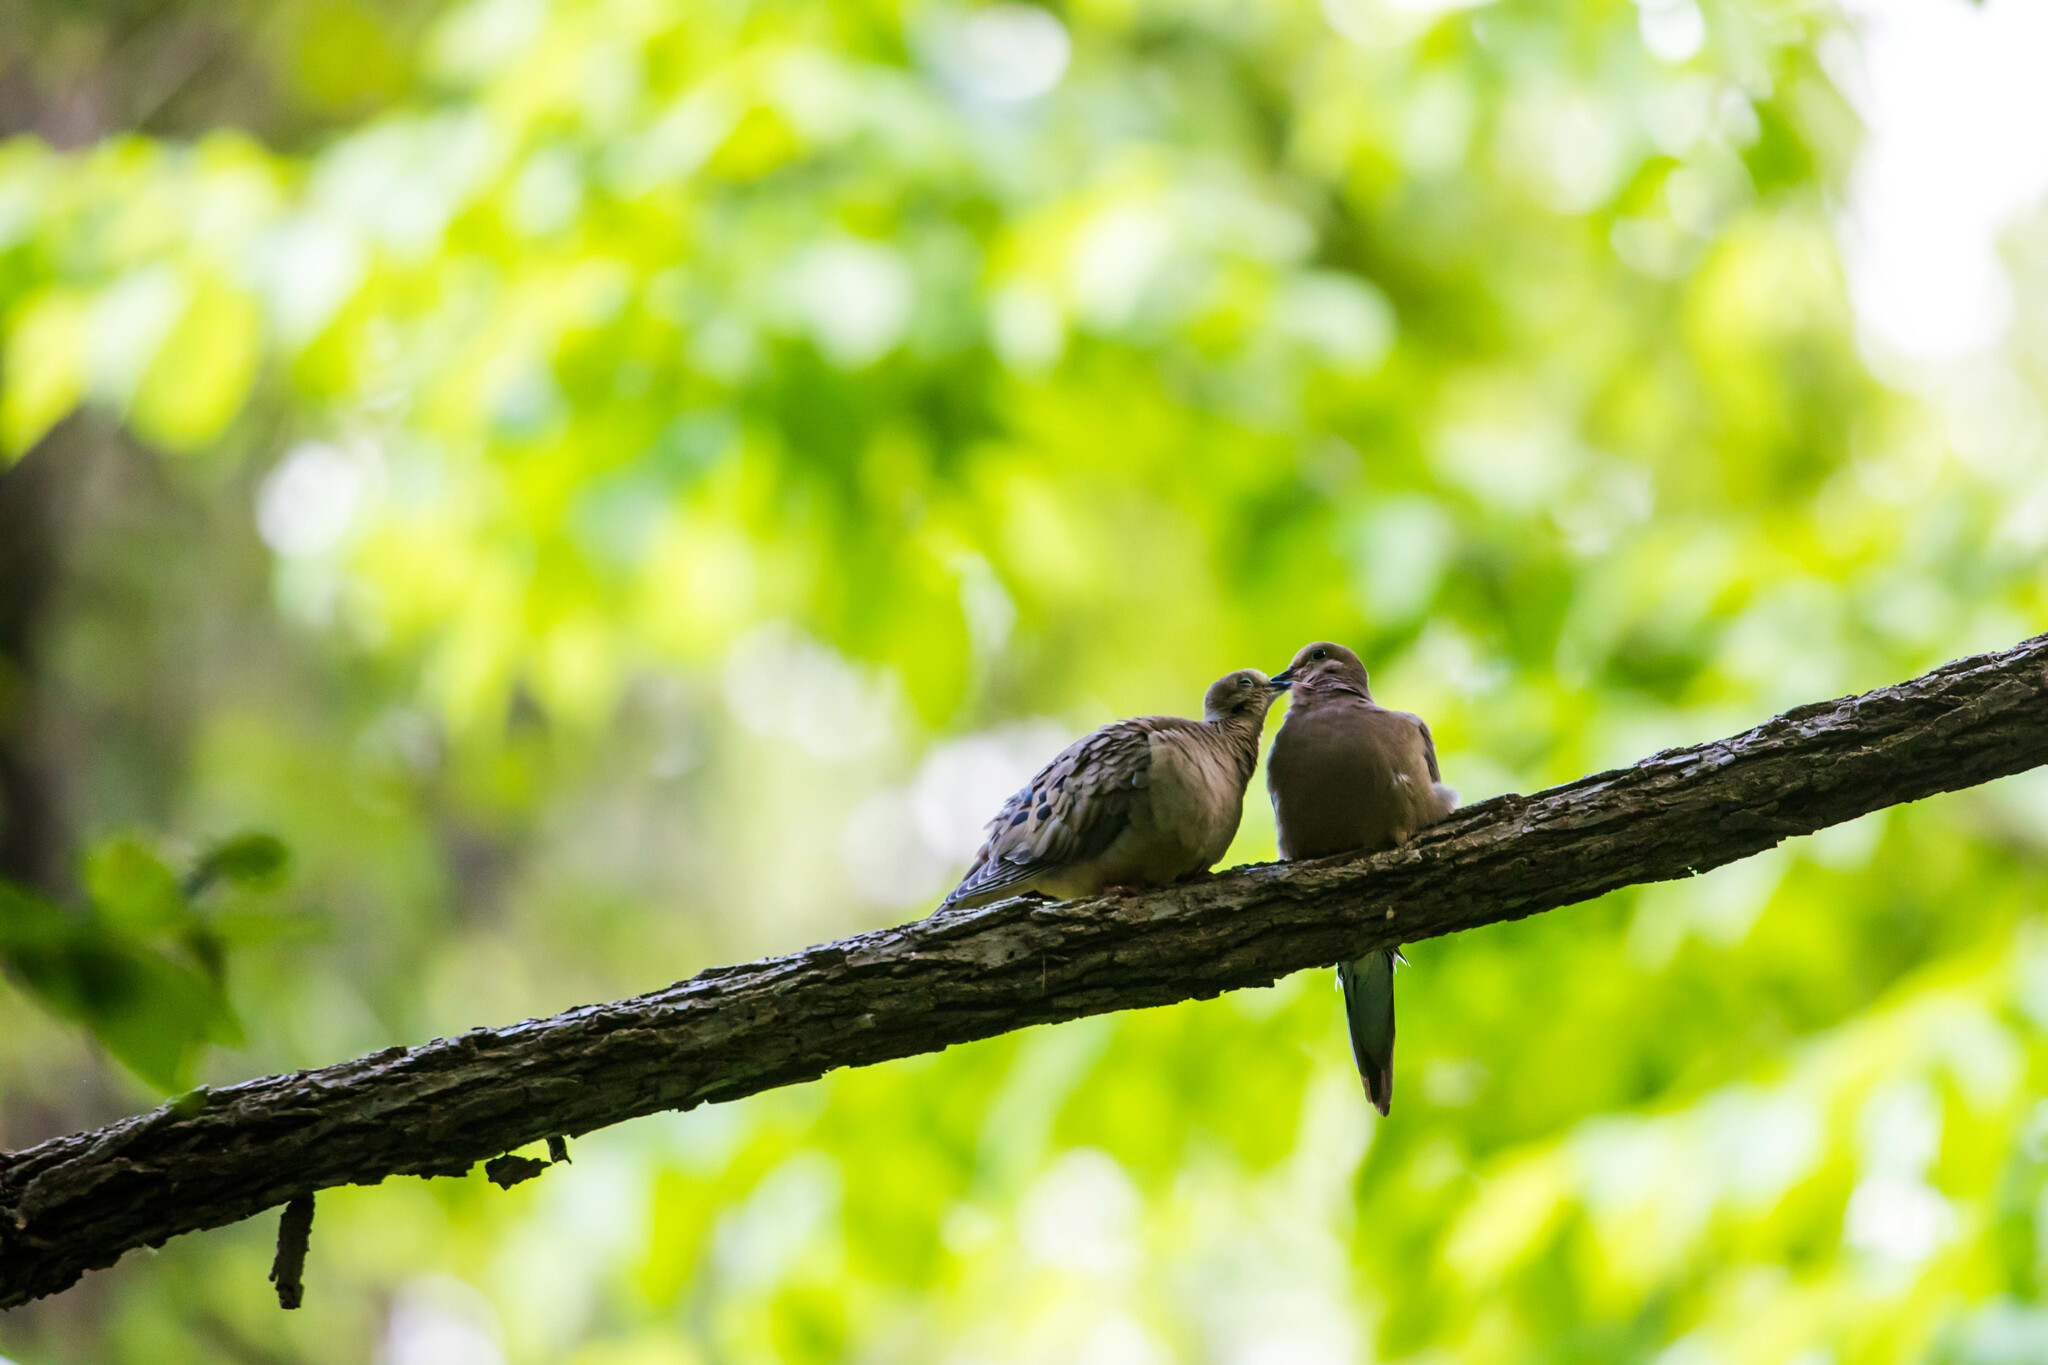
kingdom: Animalia
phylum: Chordata
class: Aves
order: Columbiformes
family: Columbidae
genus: Zenaida
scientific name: Zenaida macroura
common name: Mourning dove
